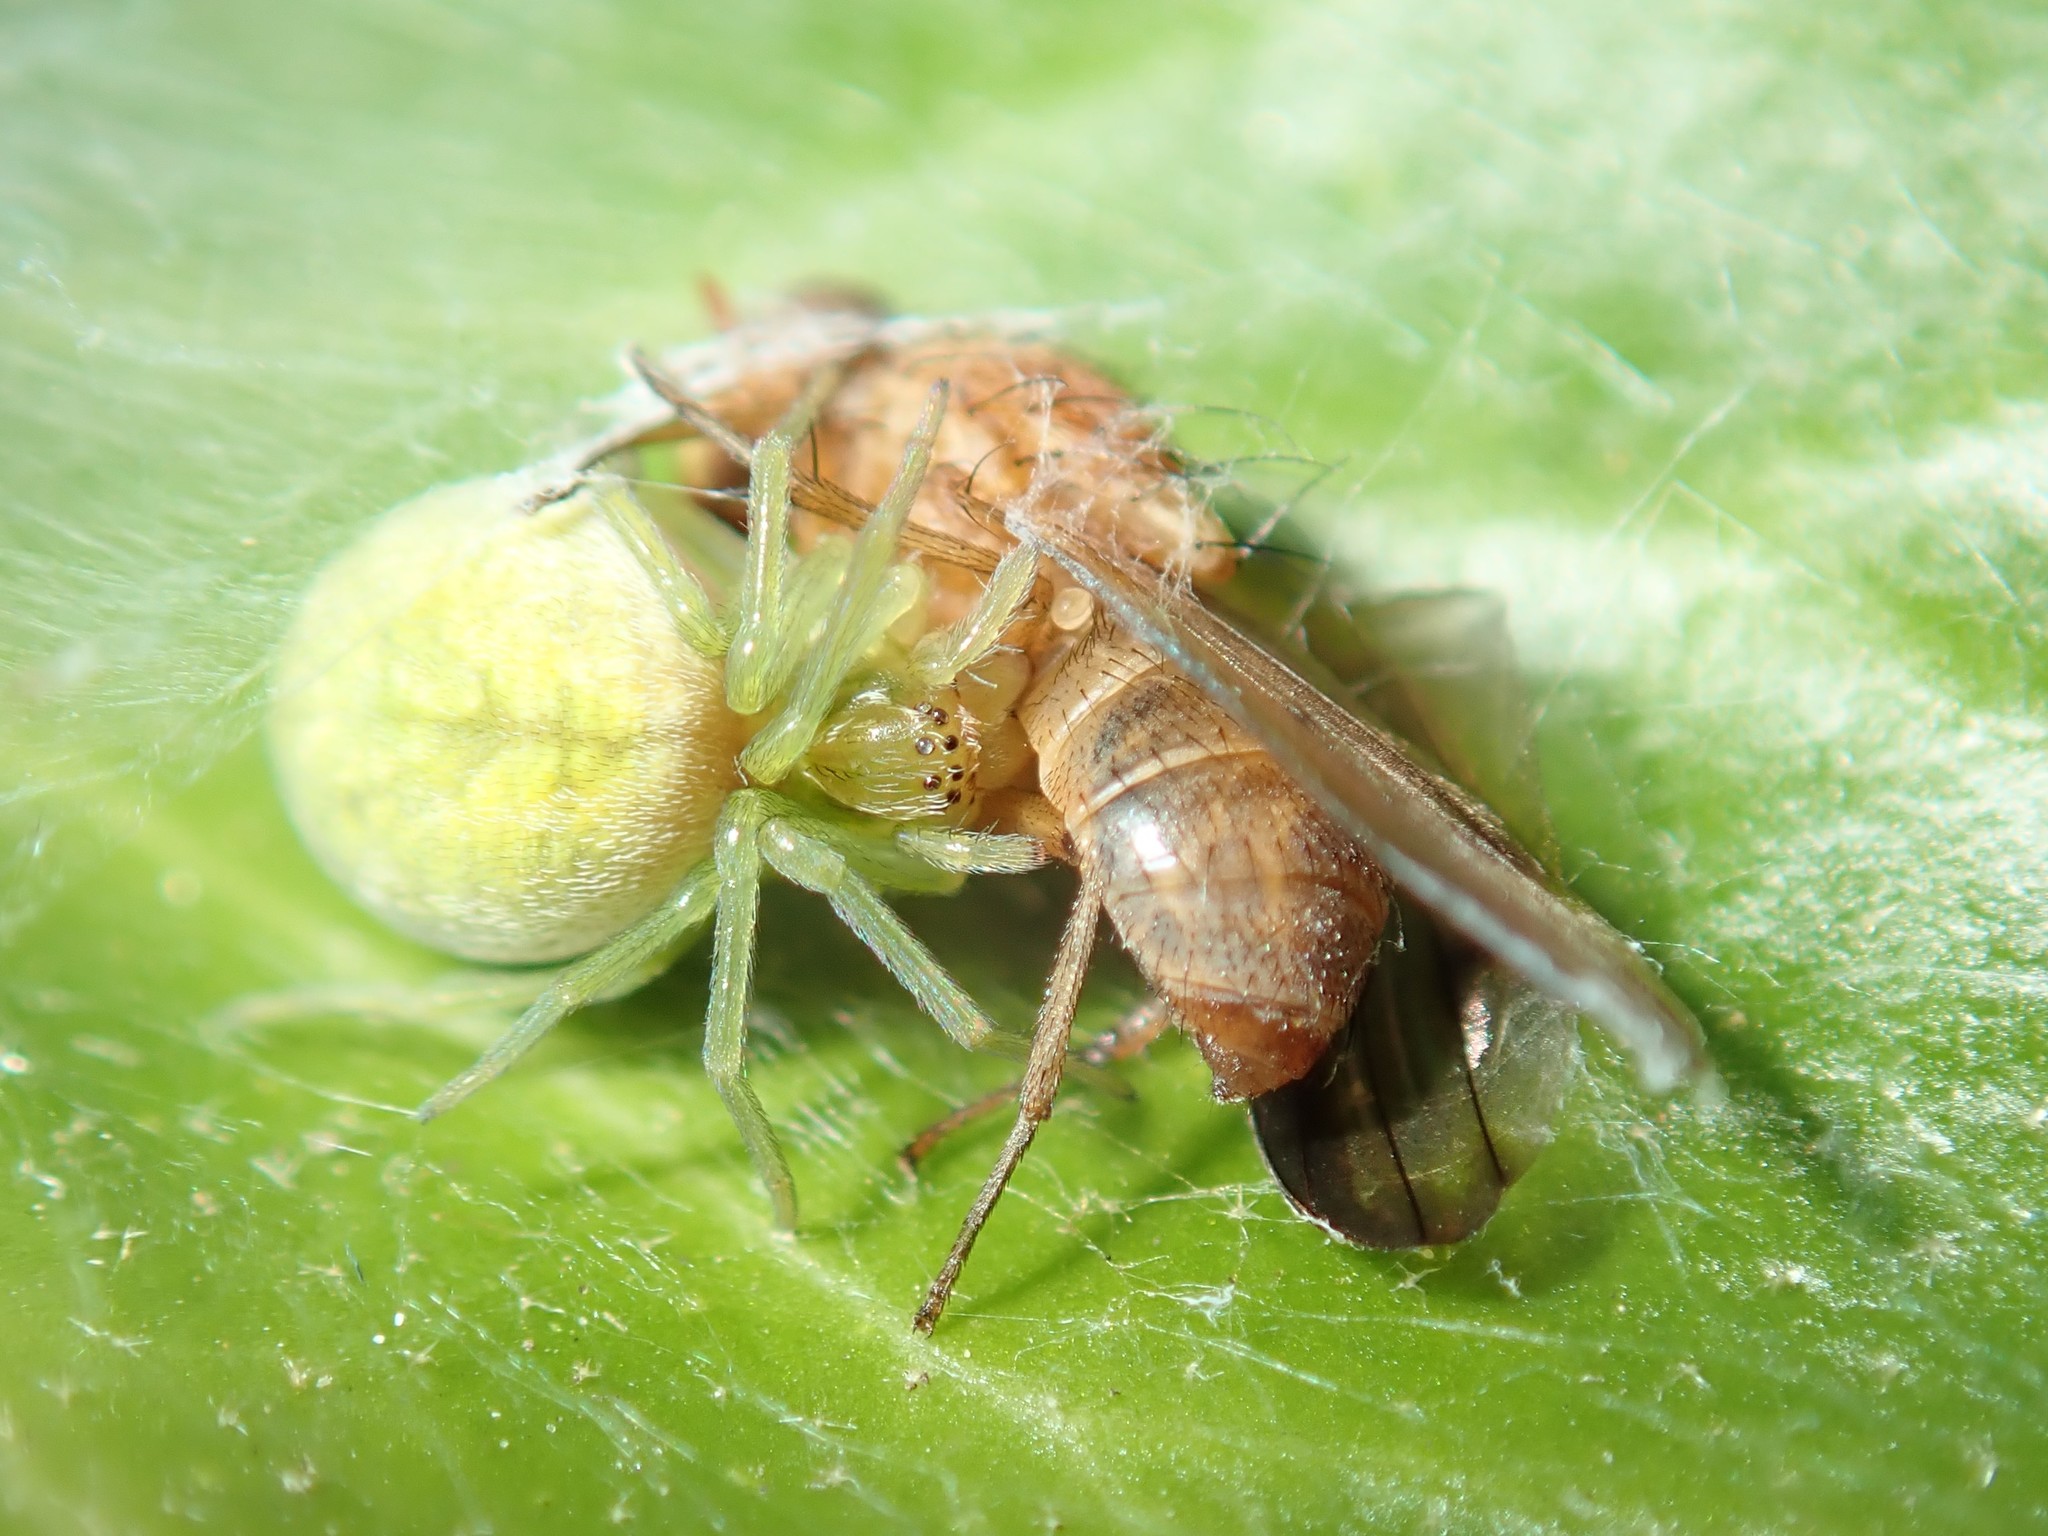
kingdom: Animalia
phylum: Arthropoda
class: Arachnida
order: Araneae
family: Dictynidae
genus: Nigma
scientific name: Nigma walckenaeri
